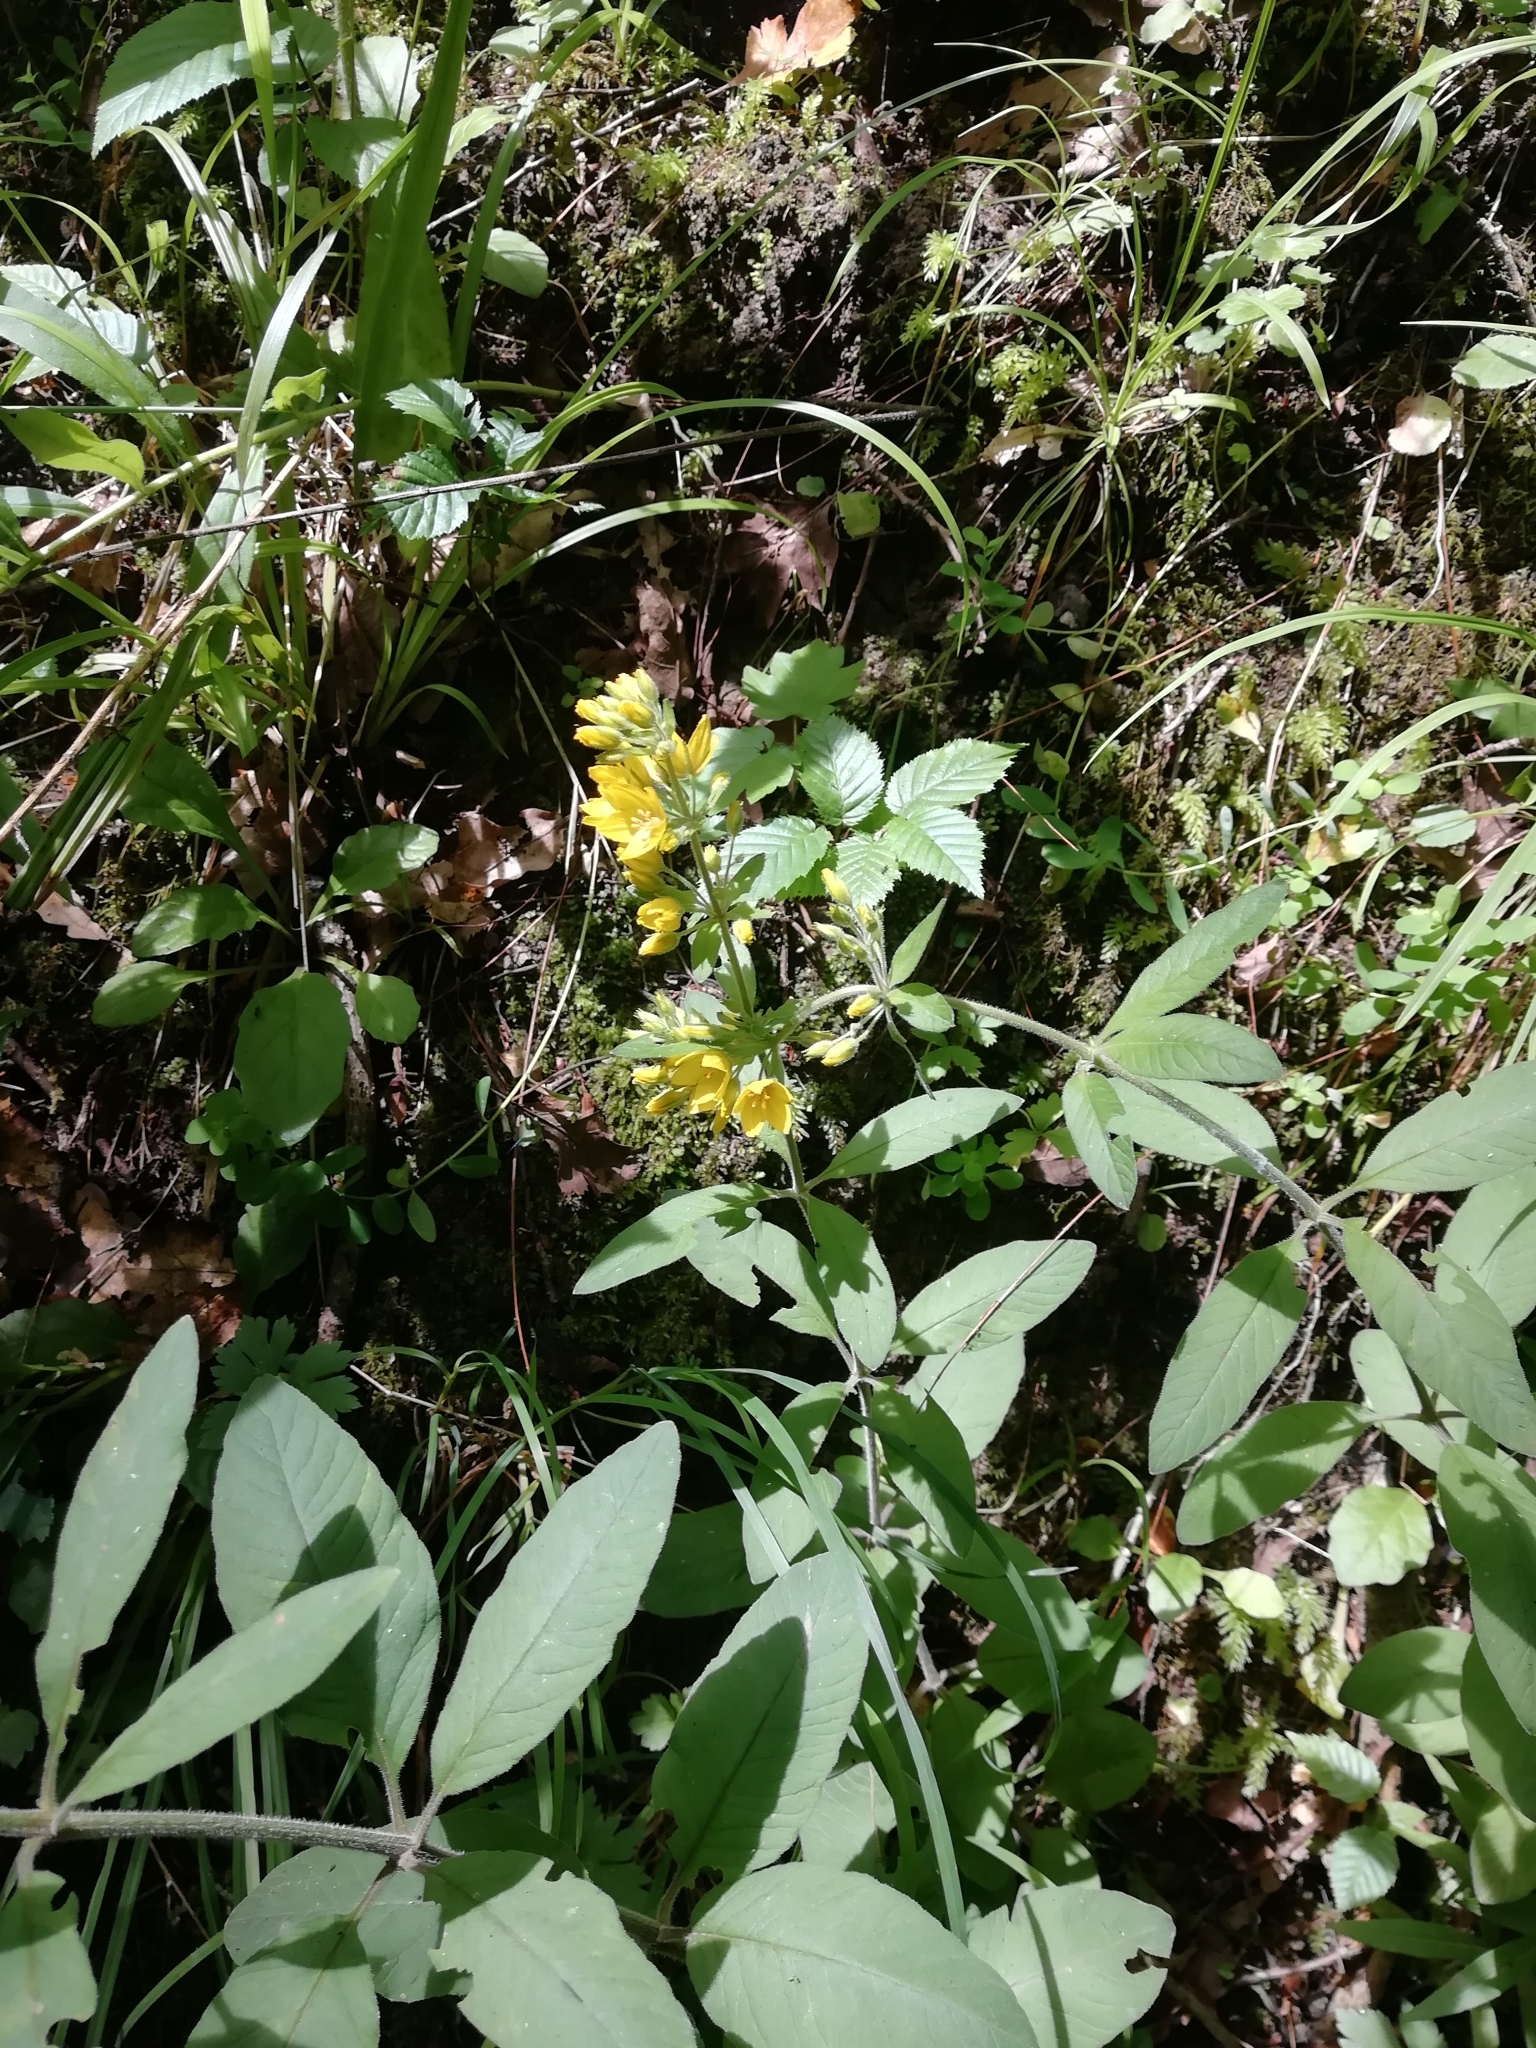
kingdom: Plantae
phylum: Tracheophyta
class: Magnoliopsida
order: Ericales
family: Primulaceae
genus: Lysimachia
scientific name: Lysimachia verticillaris
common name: Yellow loosestrife
